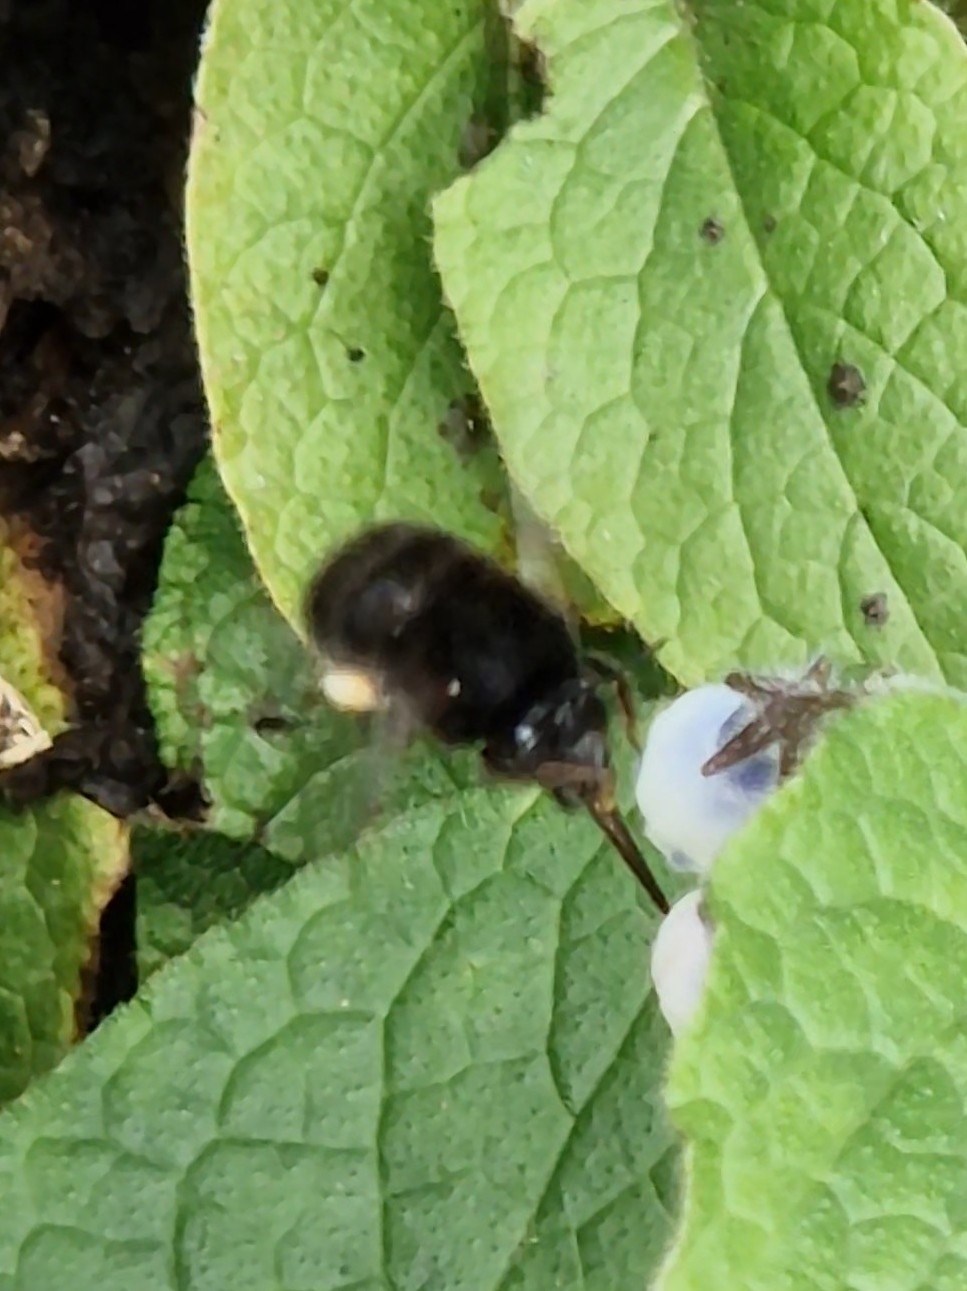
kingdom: Animalia
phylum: Arthropoda
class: Insecta
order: Hymenoptera
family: Apidae
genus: Anthophora
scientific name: Anthophora plumipes
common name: Hairy-footed flower bee
